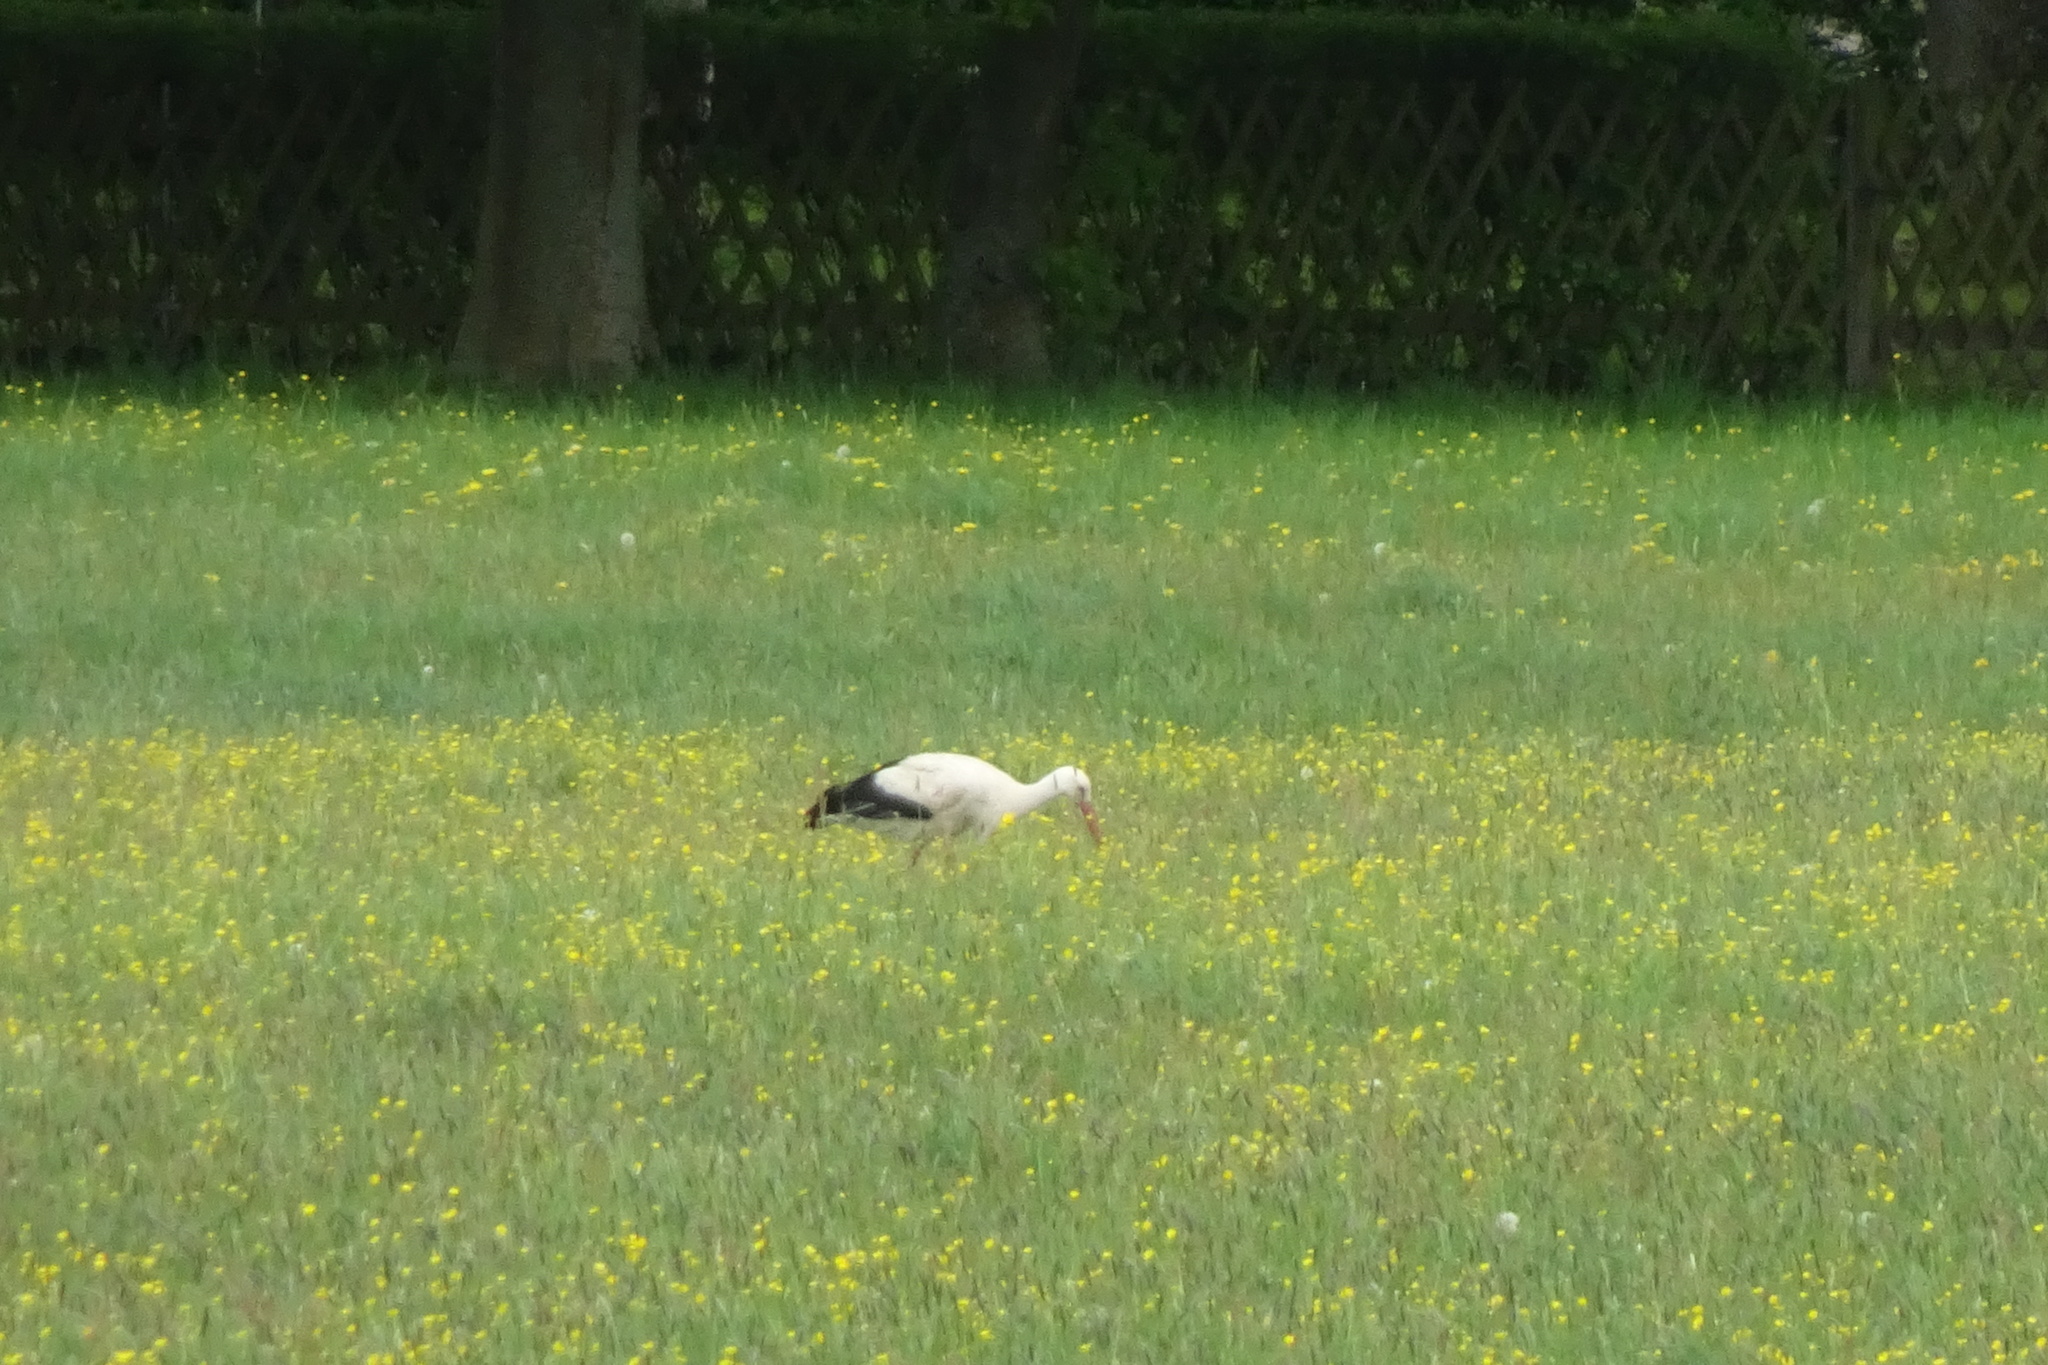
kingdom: Animalia
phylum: Chordata
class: Aves
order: Ciconiiformes
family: Ciconiidae
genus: Ciconia
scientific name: Ciconia ciconia
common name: White stork
